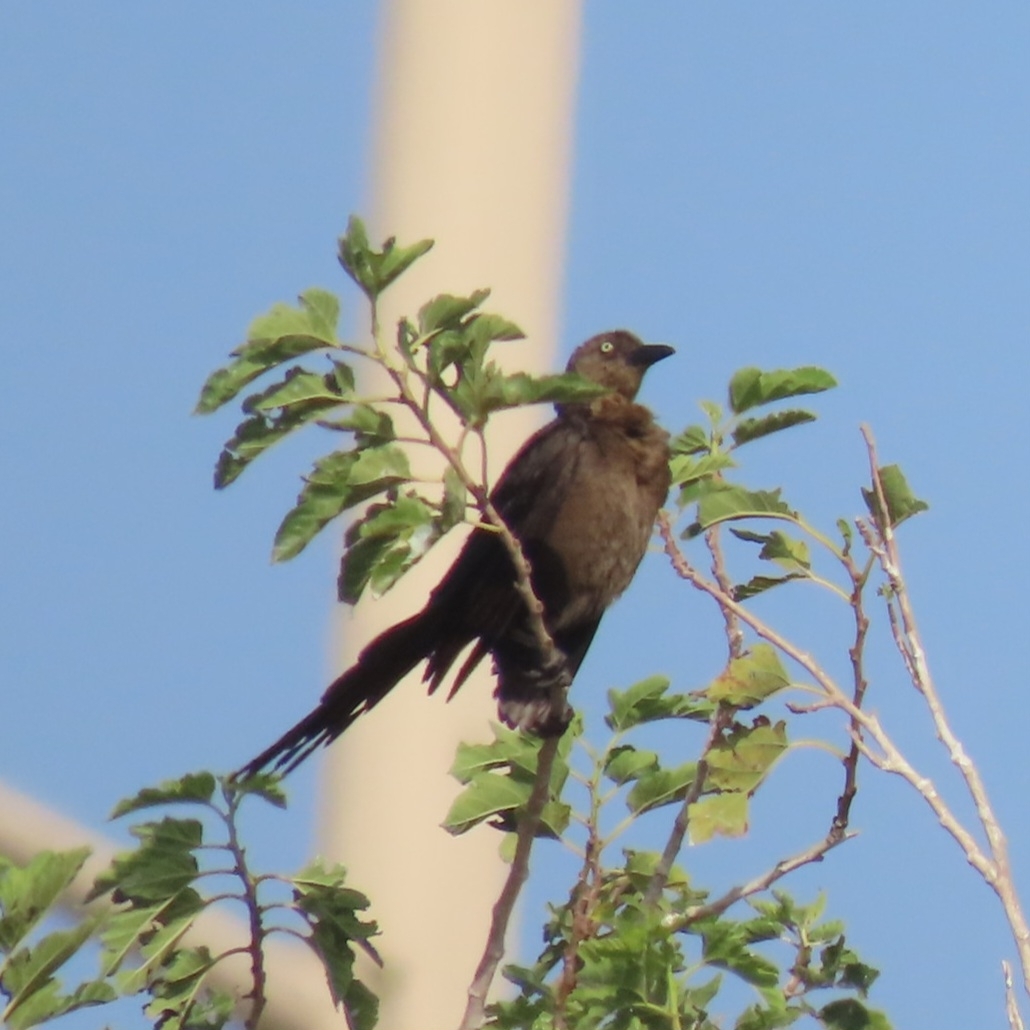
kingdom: Animalia
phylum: Chordata
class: Aves
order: Passeriformes
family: Icteridae
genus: Quiscalus
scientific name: Quiscalus mexicanus
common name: Great-tailed grackle
